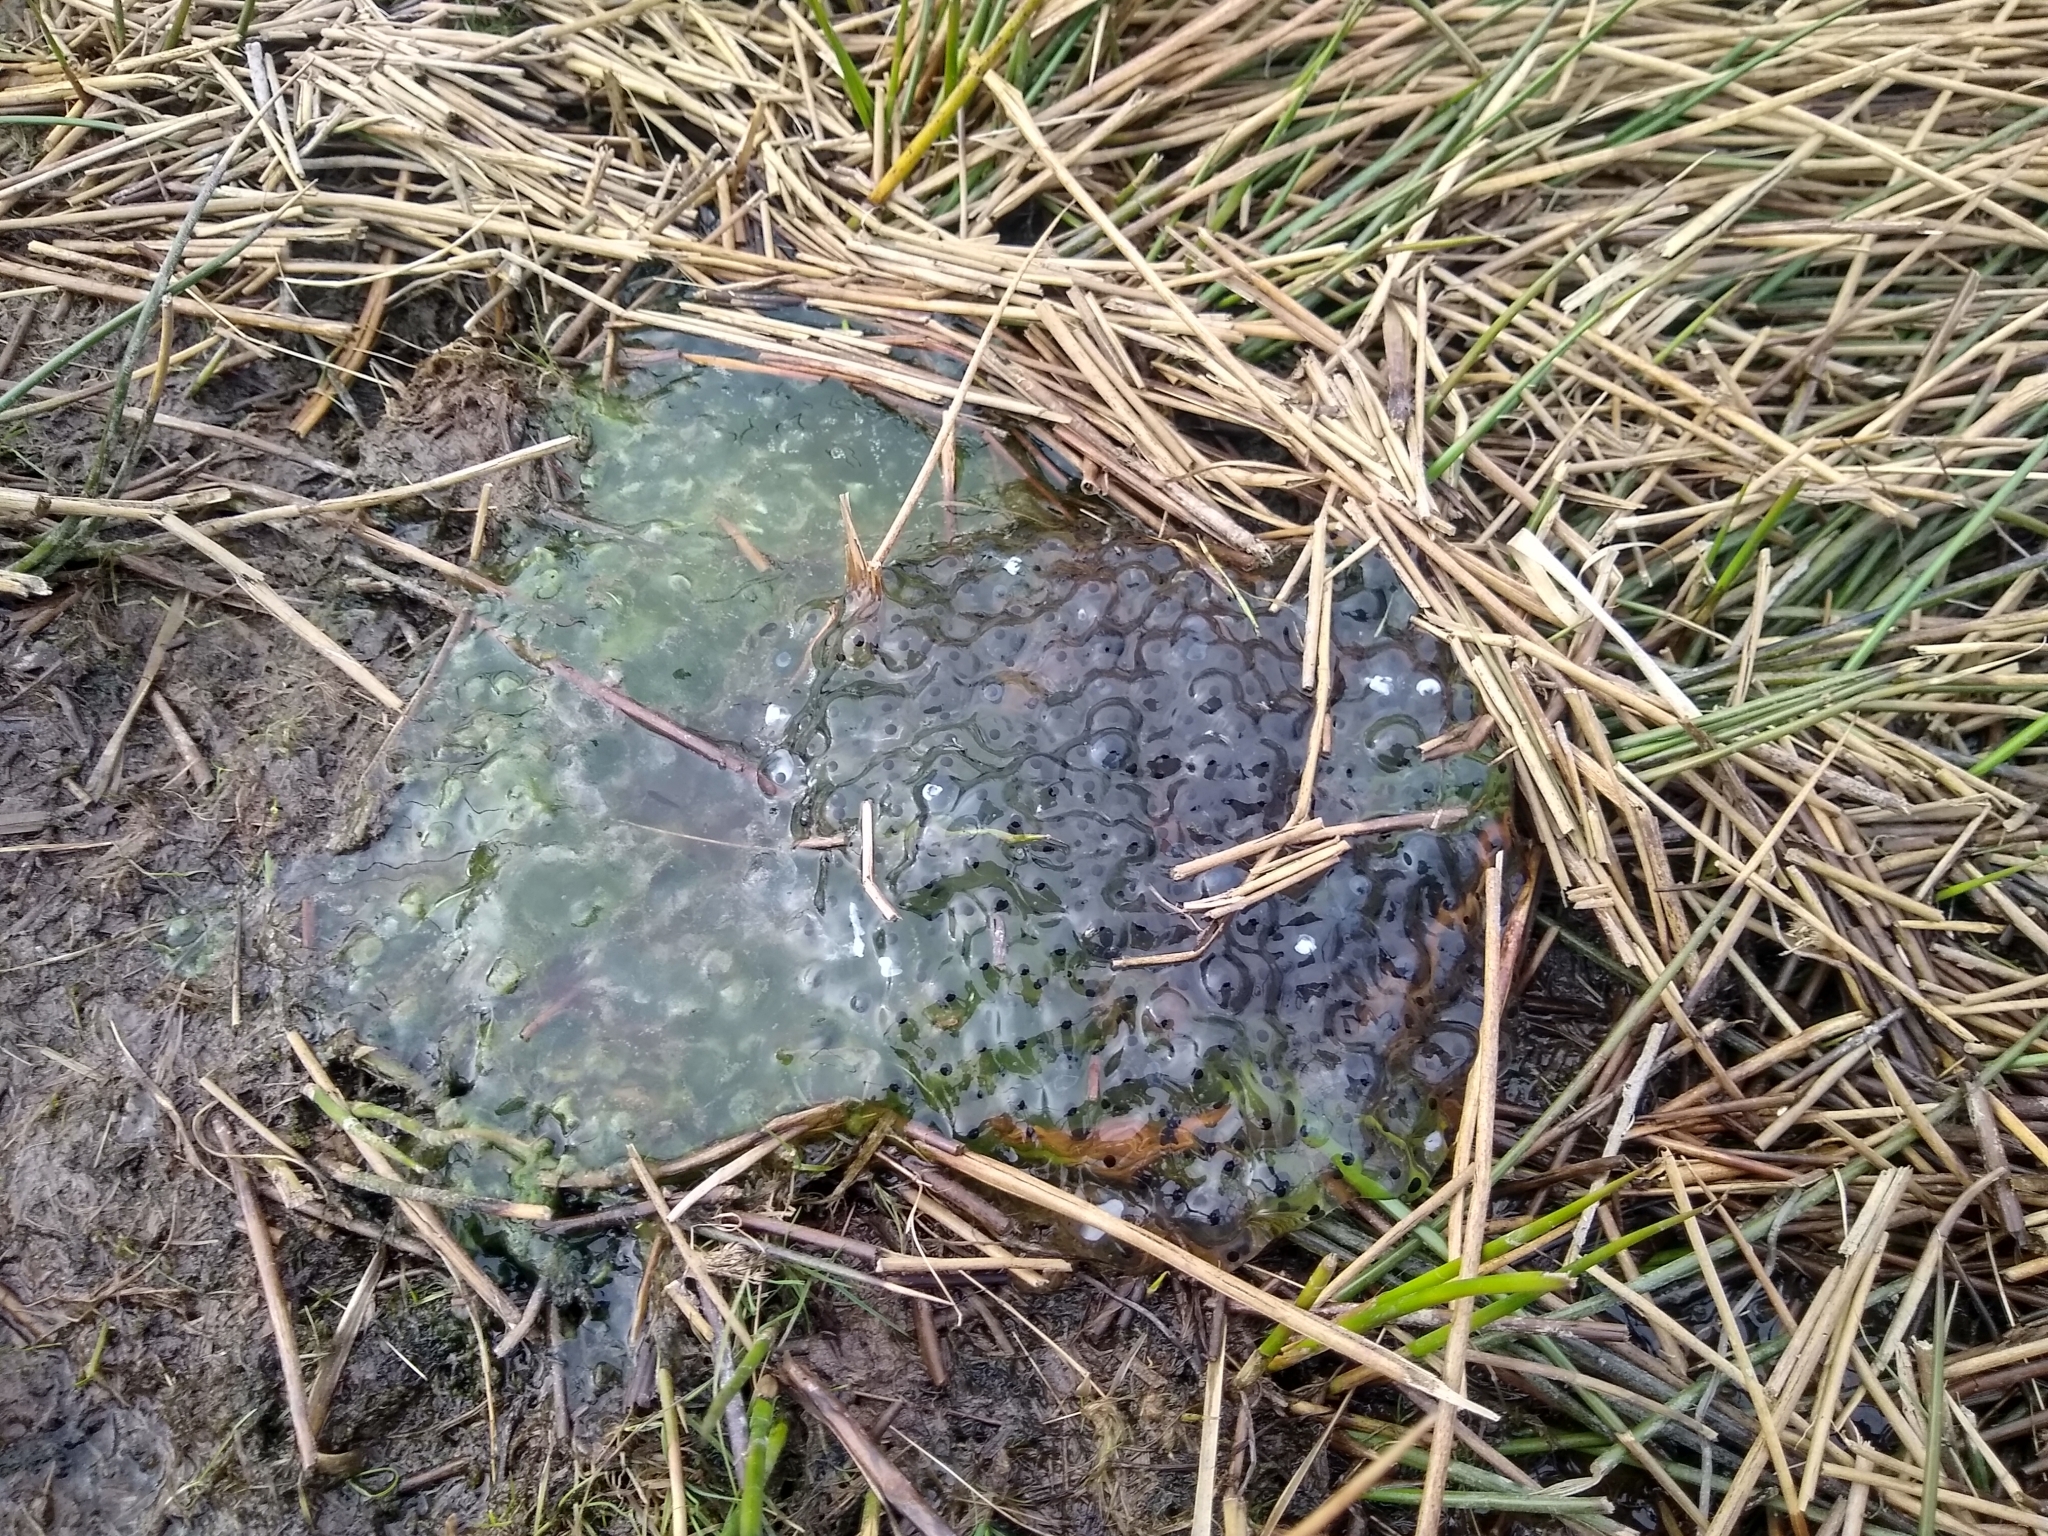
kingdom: Animalia
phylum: Chordata
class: Amphibia
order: Anura
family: Ranidae
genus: Rana
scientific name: Rana temporaria
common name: Common frog
